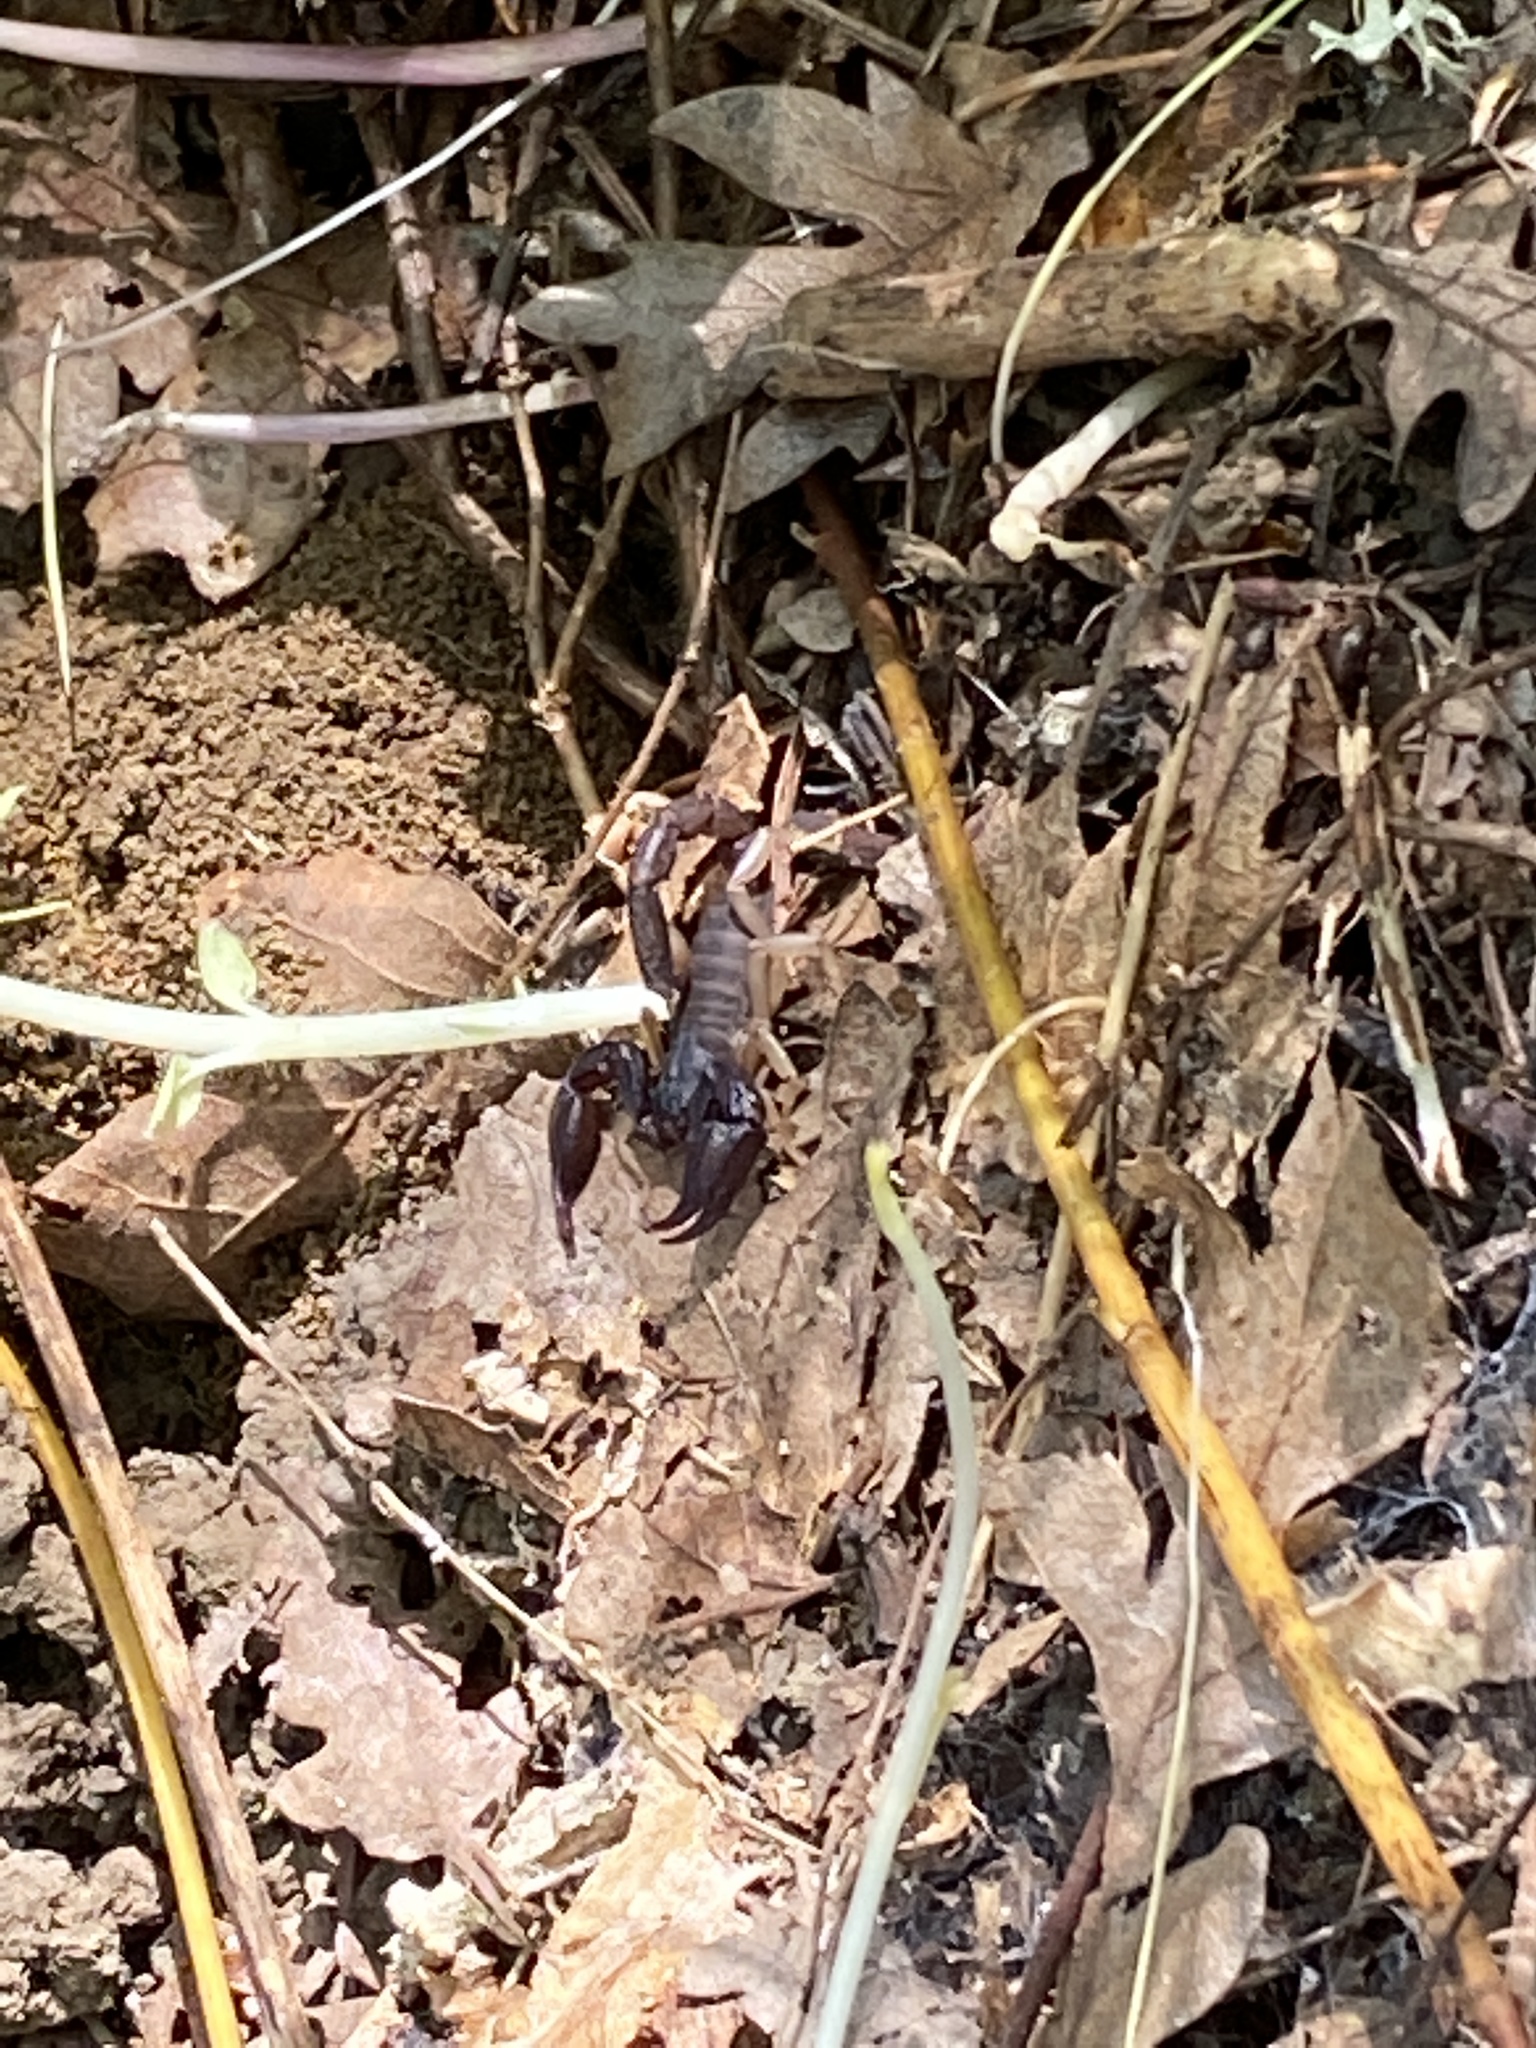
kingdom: Animalia
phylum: Arthropoda
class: Arachnida
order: Scorpiones
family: Chactidae
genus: Uroctonus
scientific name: Uroctonus mordax
